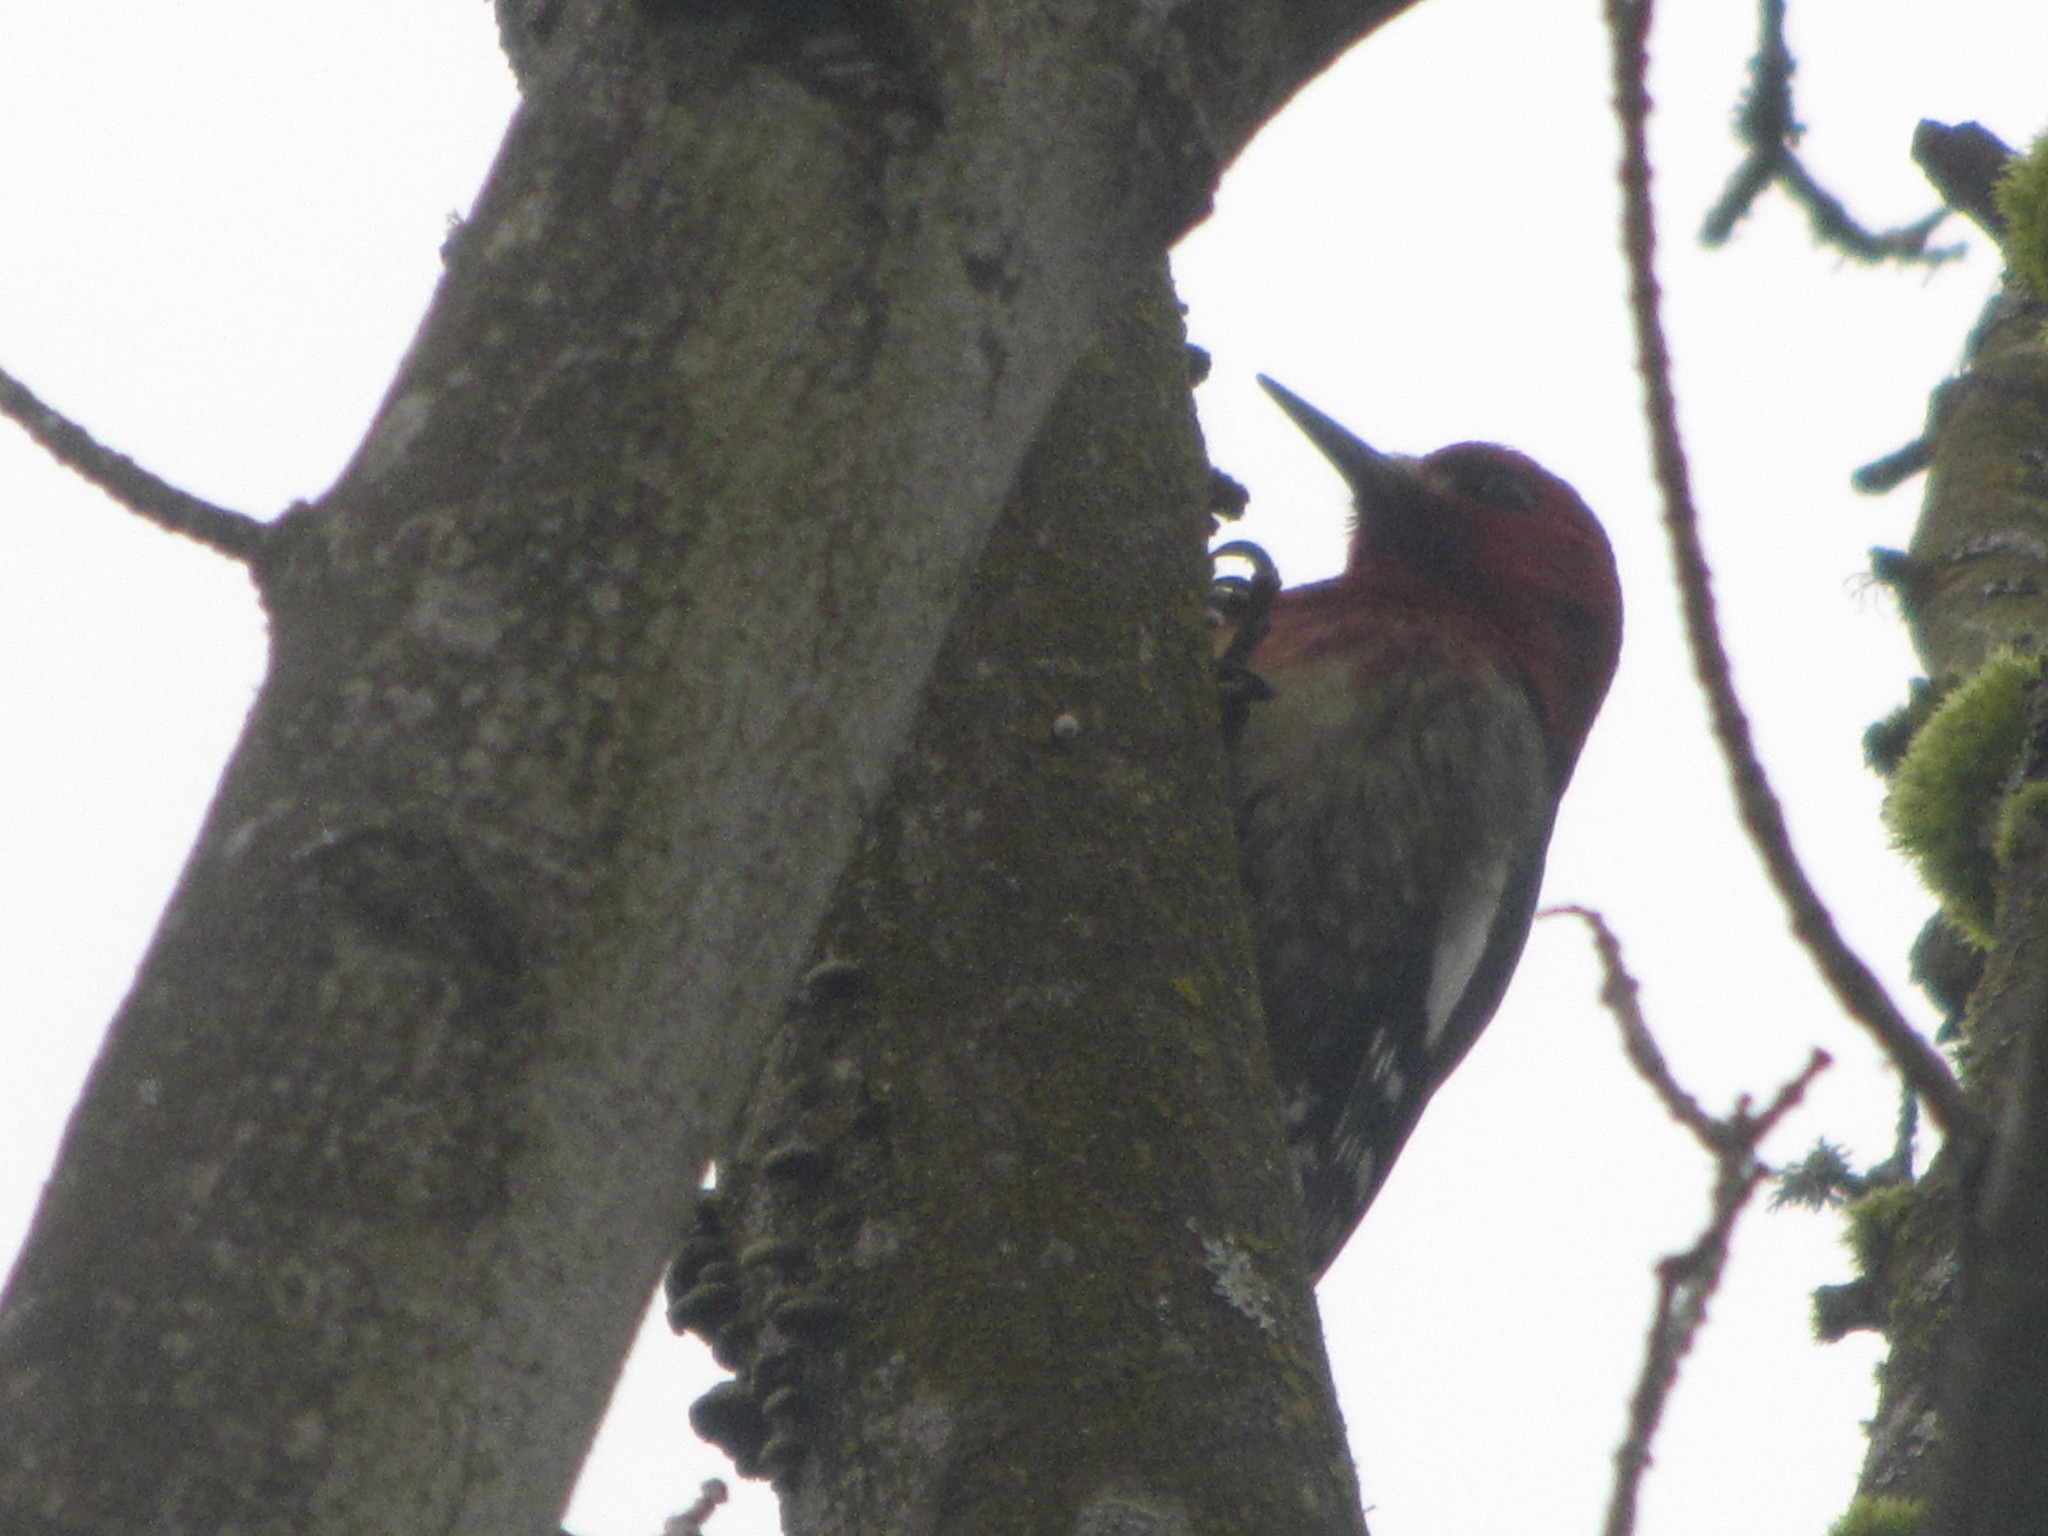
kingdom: Animalia
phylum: Chordata
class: Aves
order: Piciformes
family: Picidae
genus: Sphyrapicus
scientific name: Sphyrapicus ruber
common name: Red-breasted sapsucker
